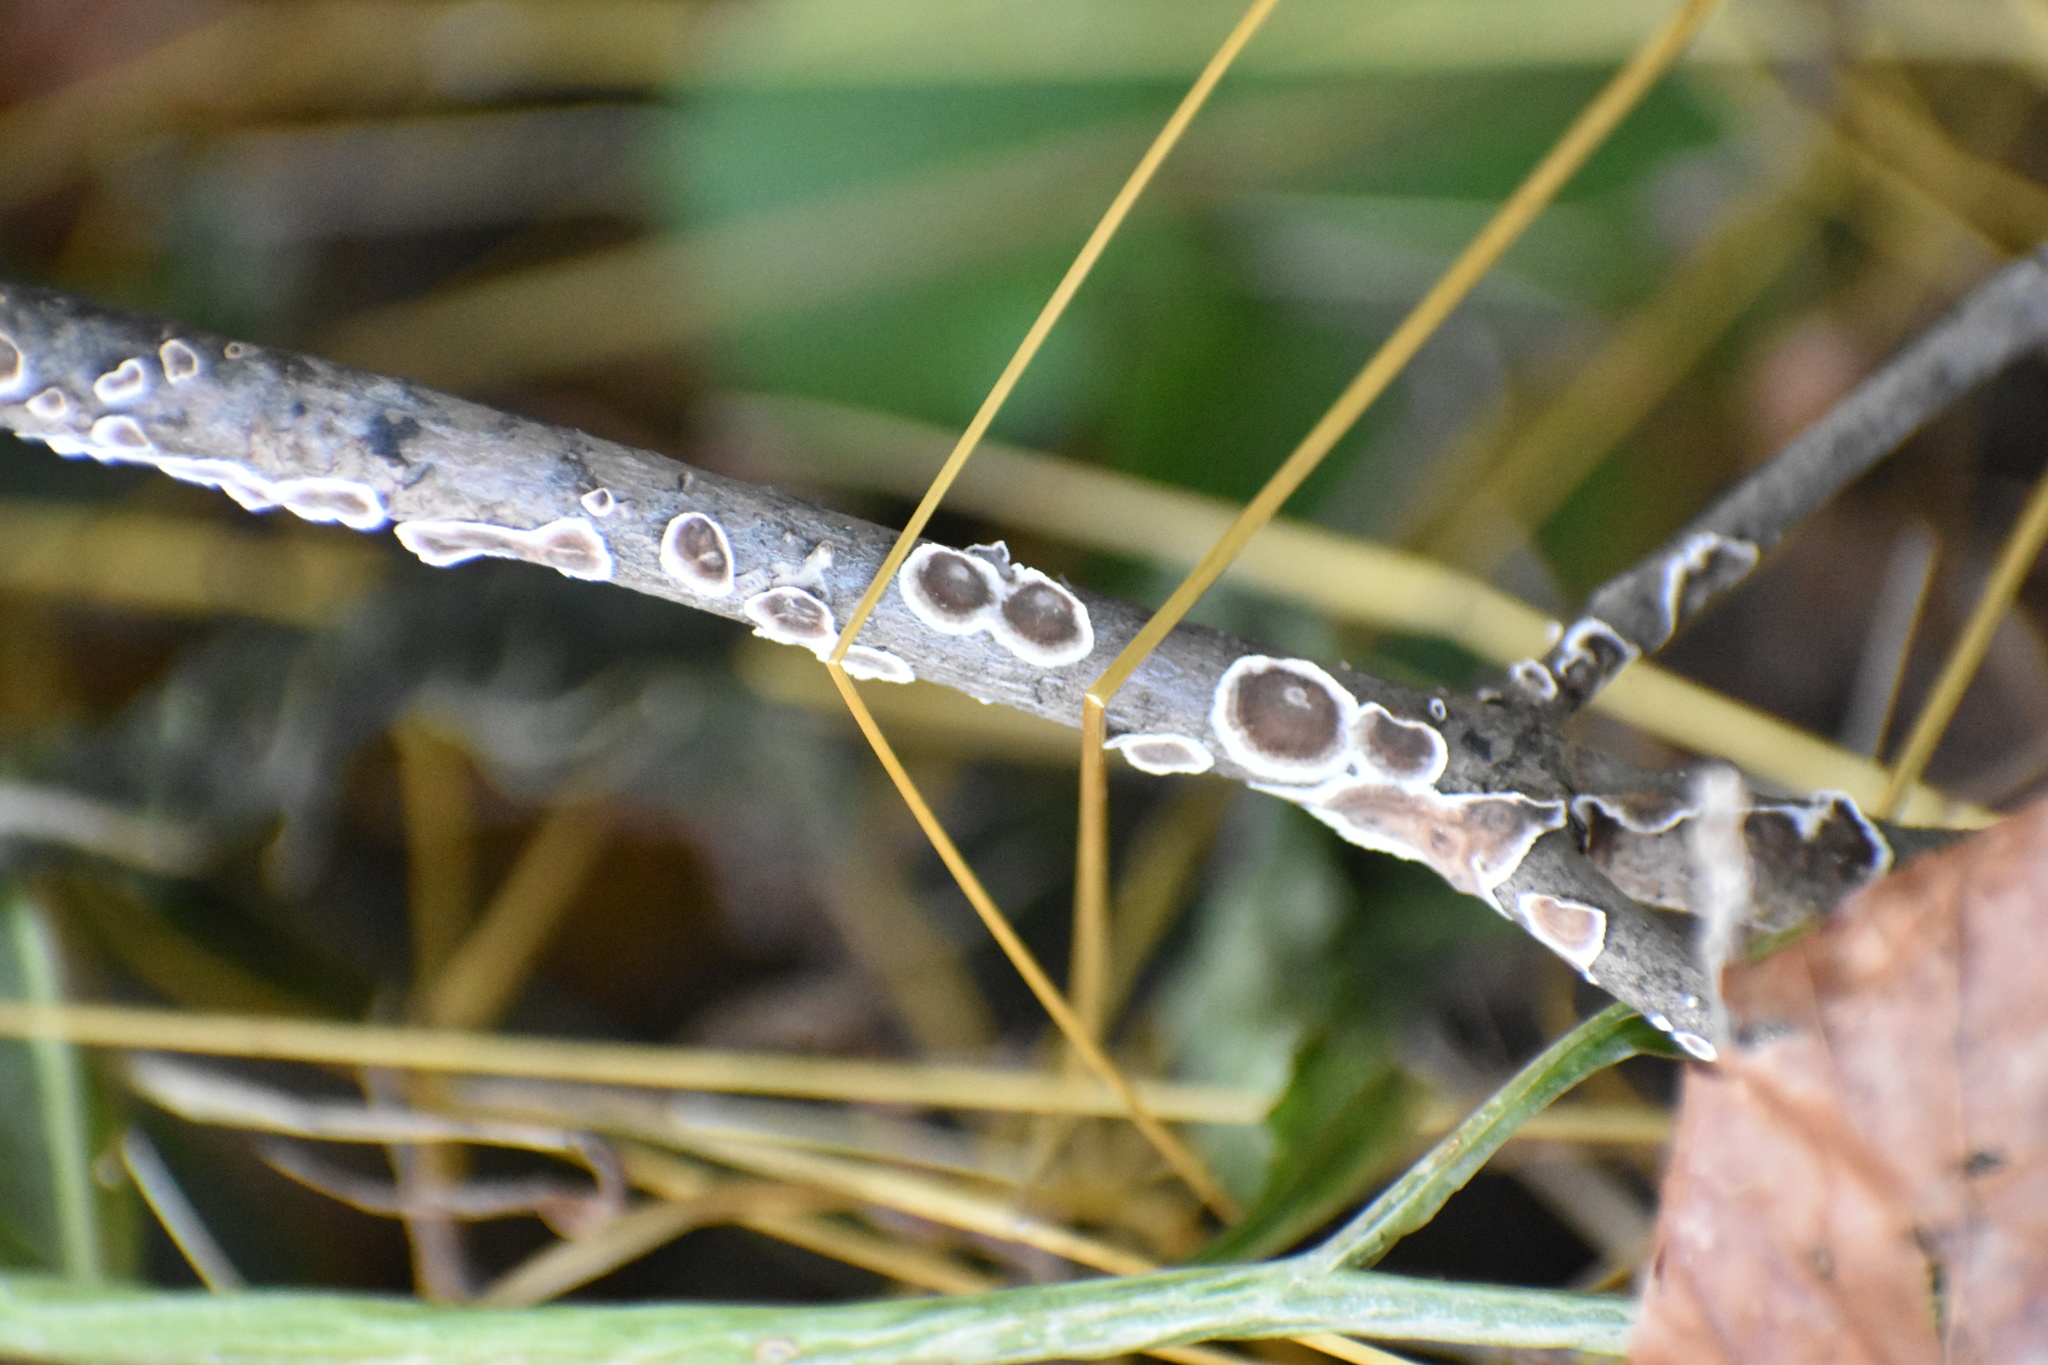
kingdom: Fungi
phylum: Basidiomycota
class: Agaricomycetes
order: Russulales
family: Peniophoraceae
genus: Peniophora
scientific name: Peniophora albobadia
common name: Giraffe spots
